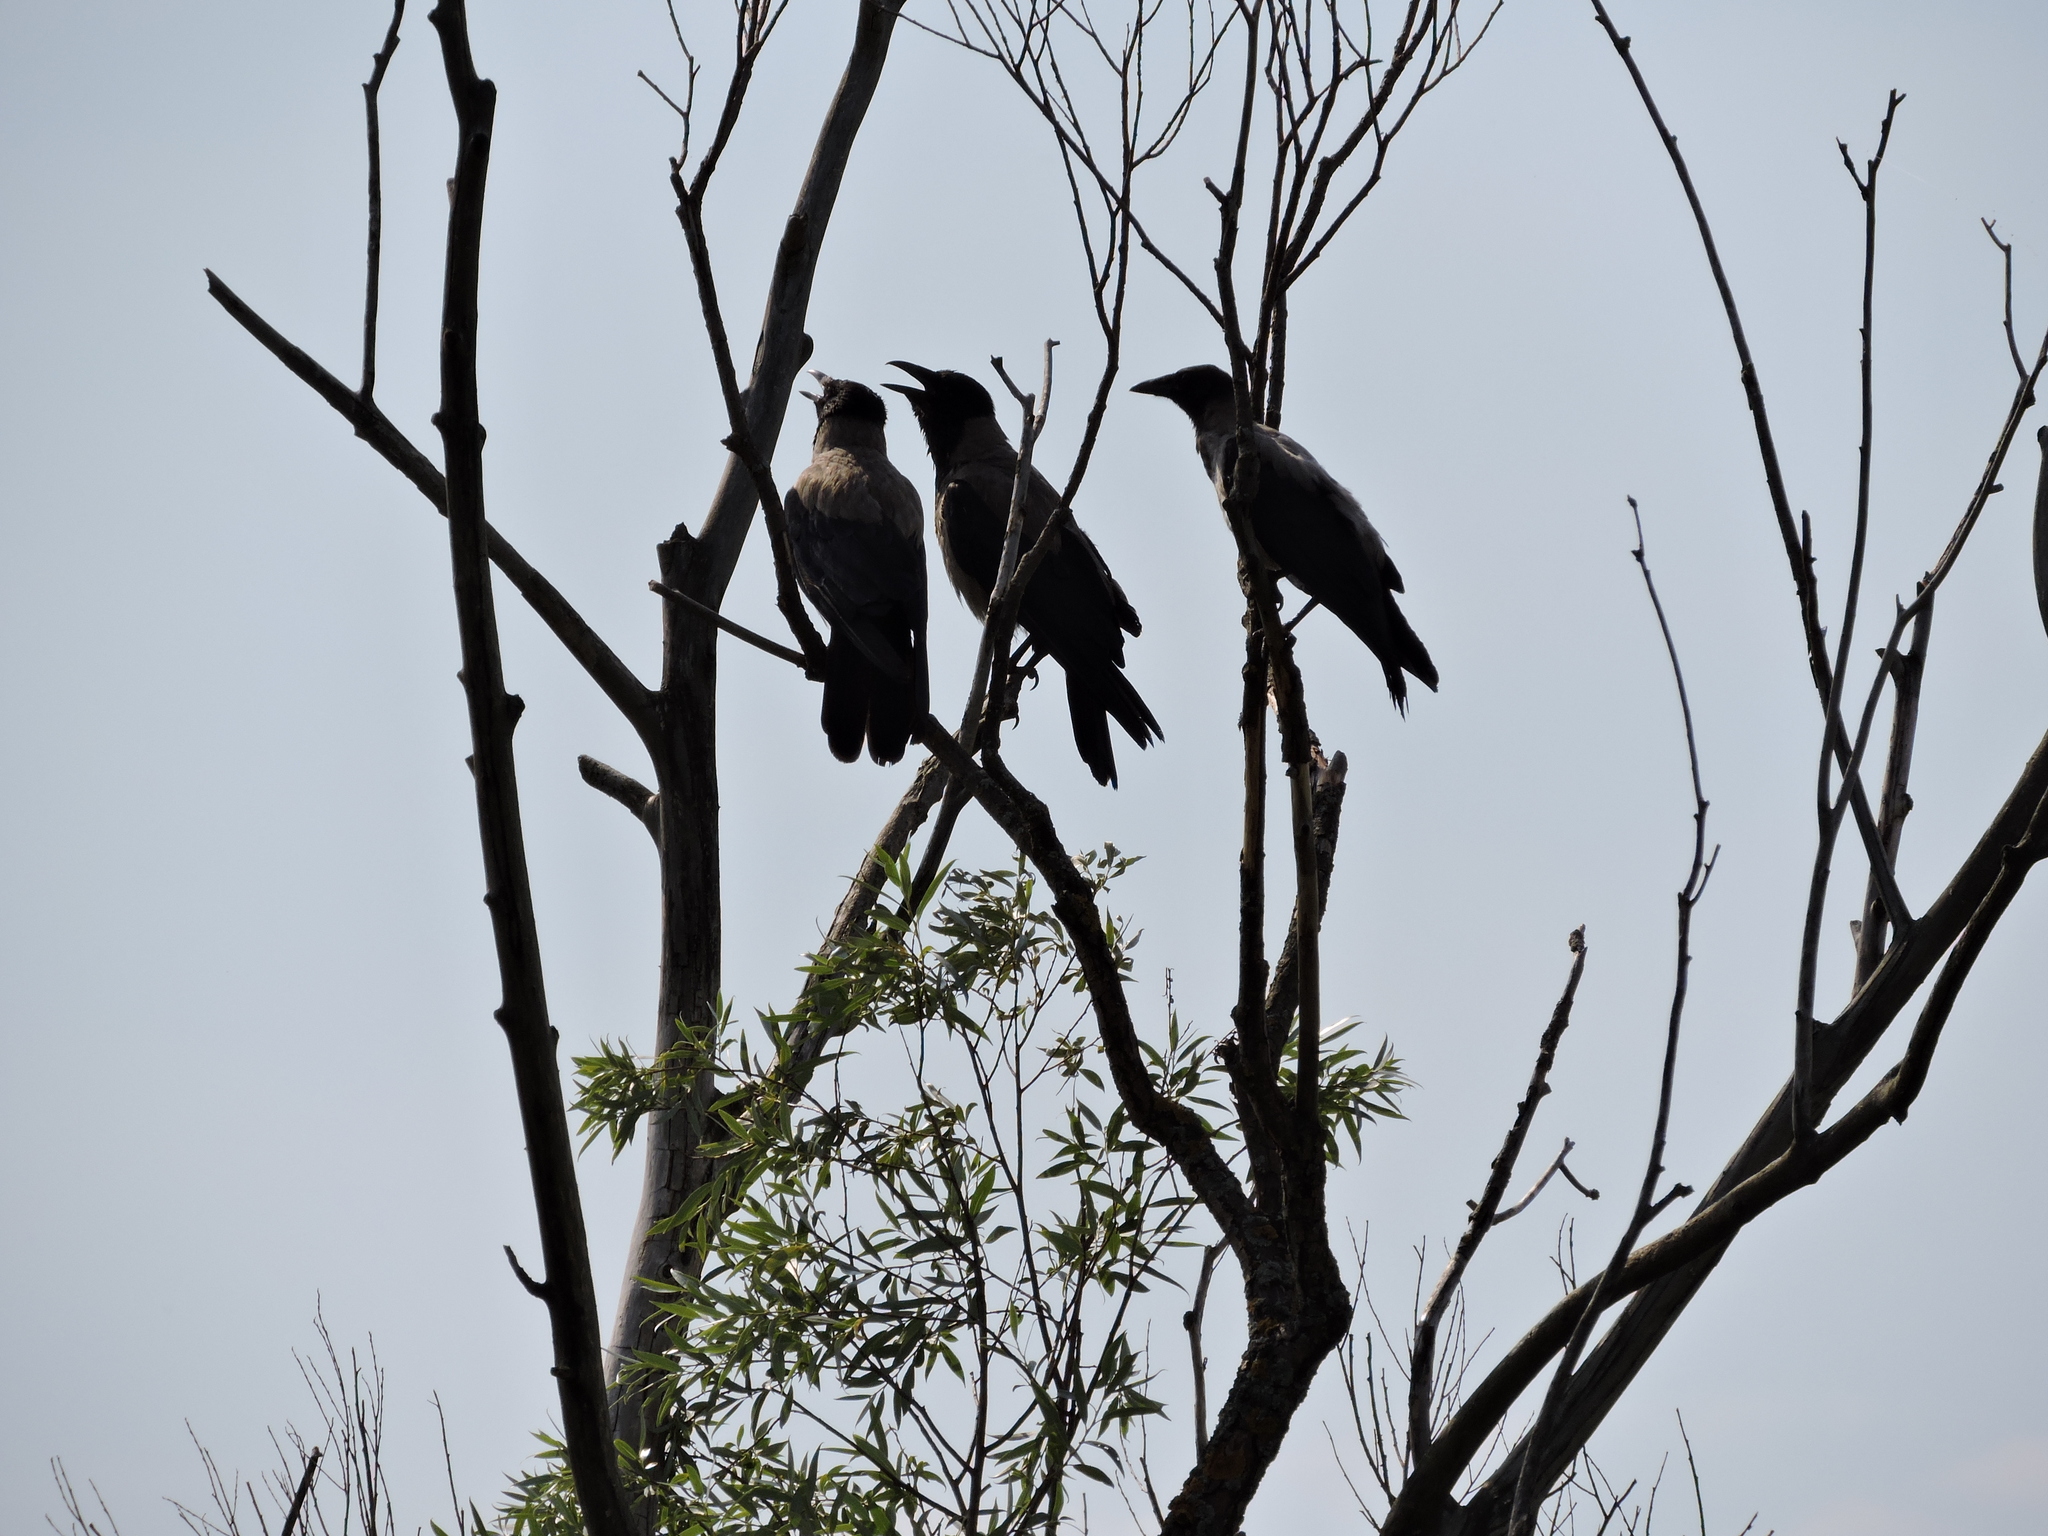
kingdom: Animalia
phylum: Chordata
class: Aves
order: Passeriformes
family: Corvidae
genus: Corvus
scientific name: Corvus cornix
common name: Hooded crow
